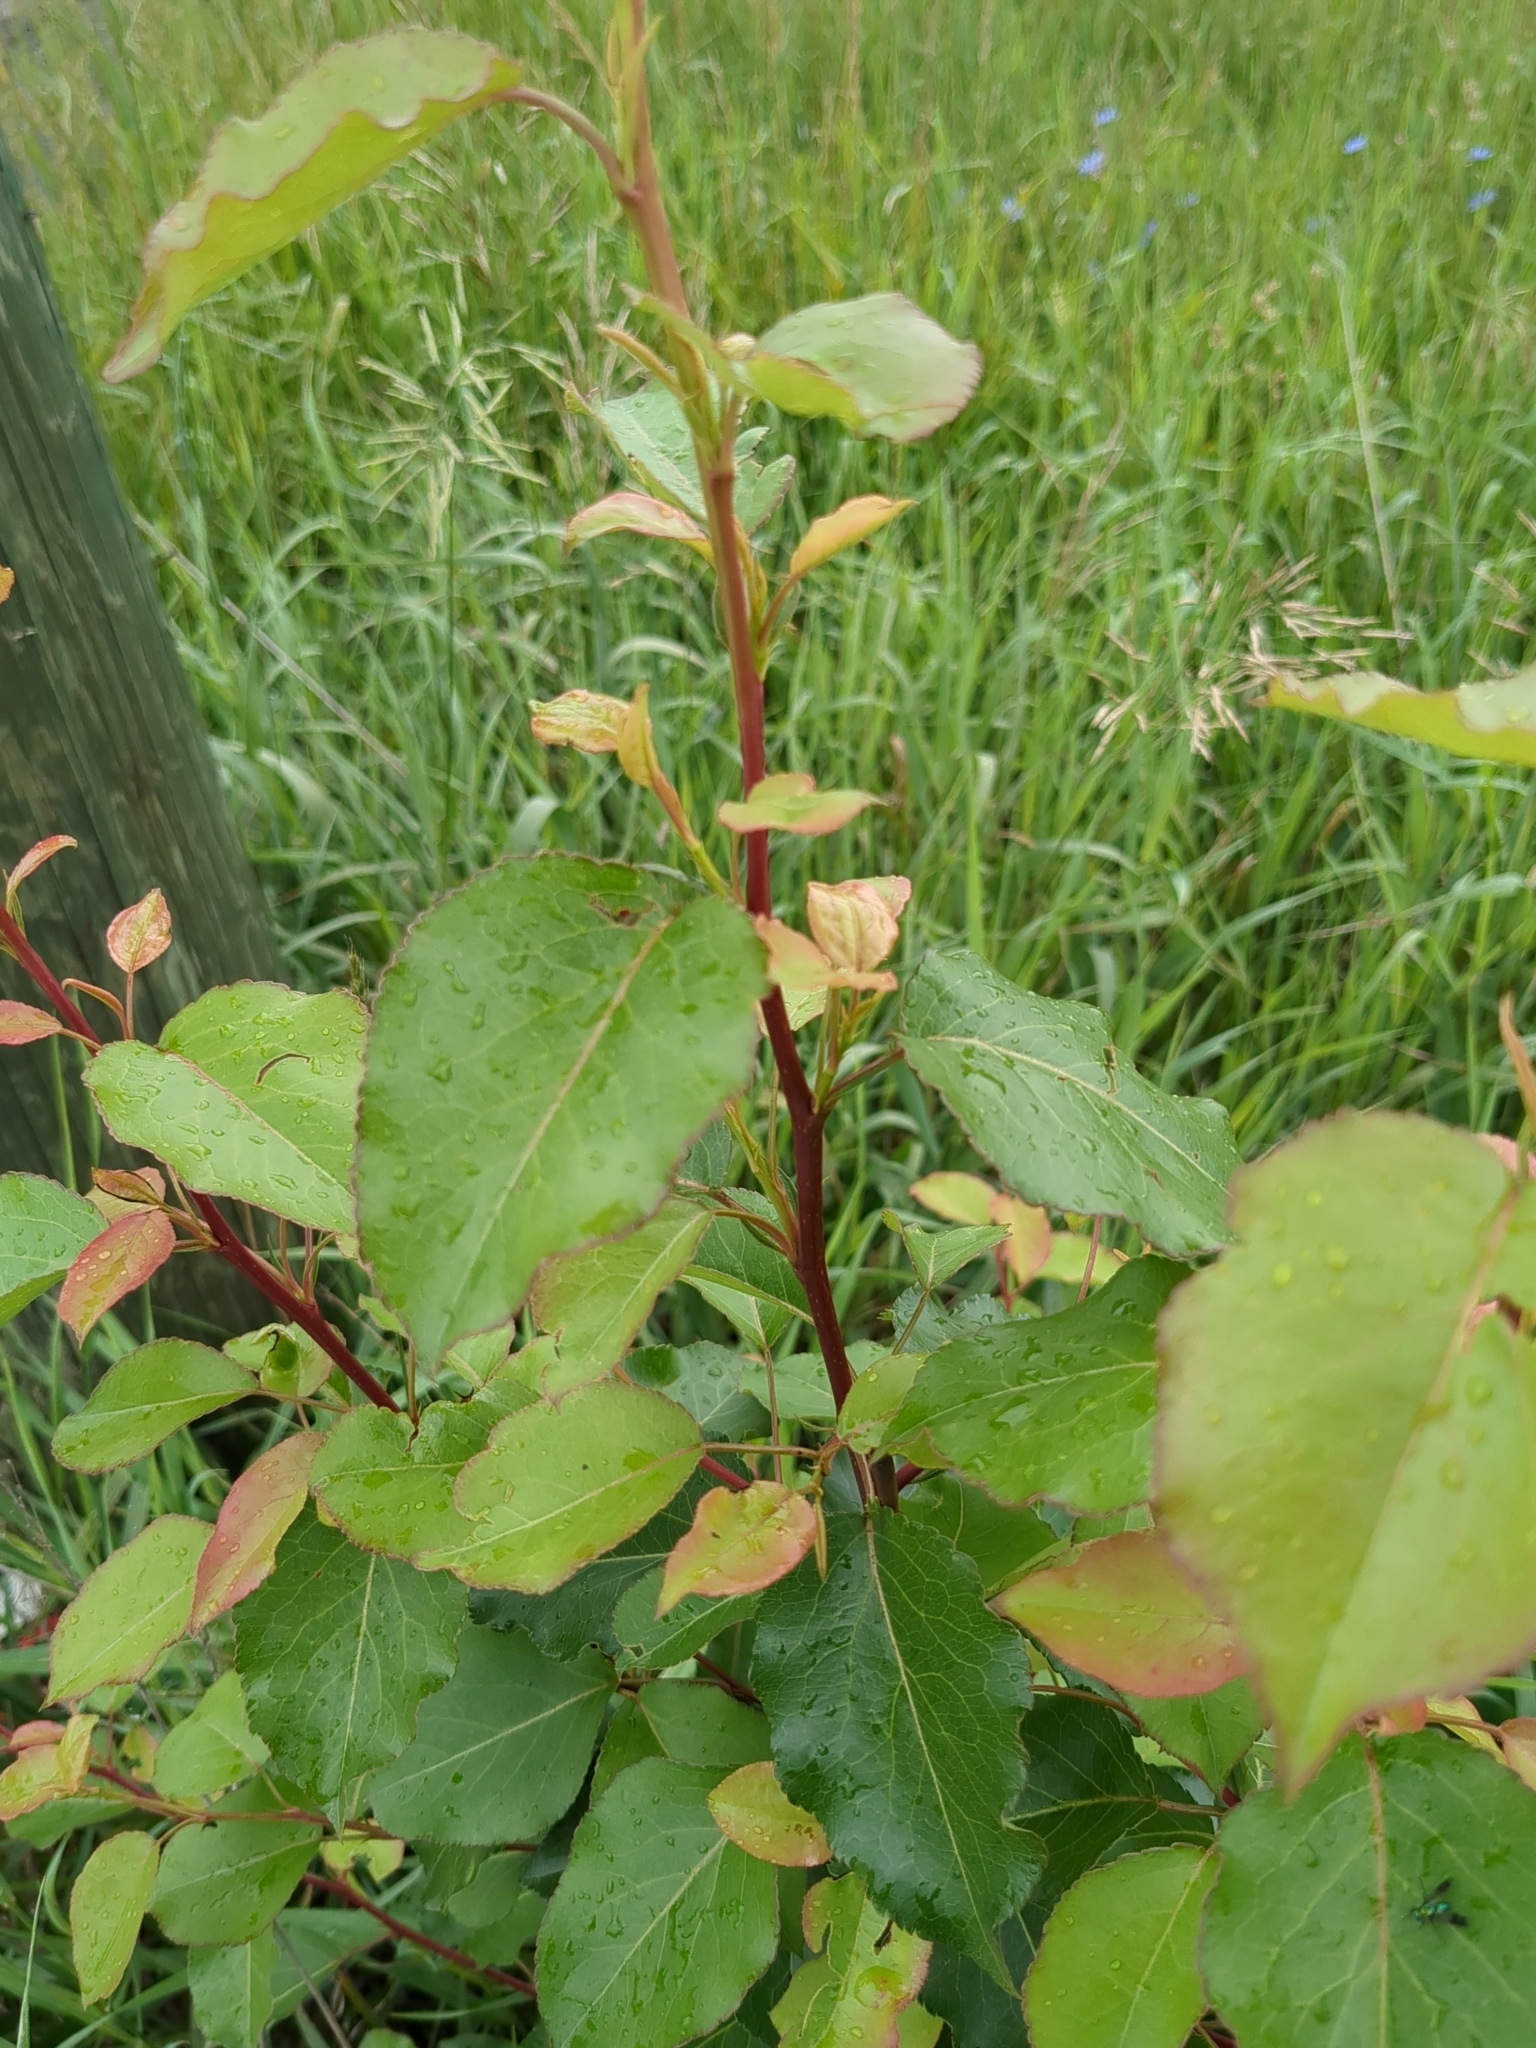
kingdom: Plantae
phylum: Tracheophyta
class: Magnoliopsida
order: Rosales
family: Rosaceae
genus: Pyrus
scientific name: Pyrus calleryana
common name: Callery pear
